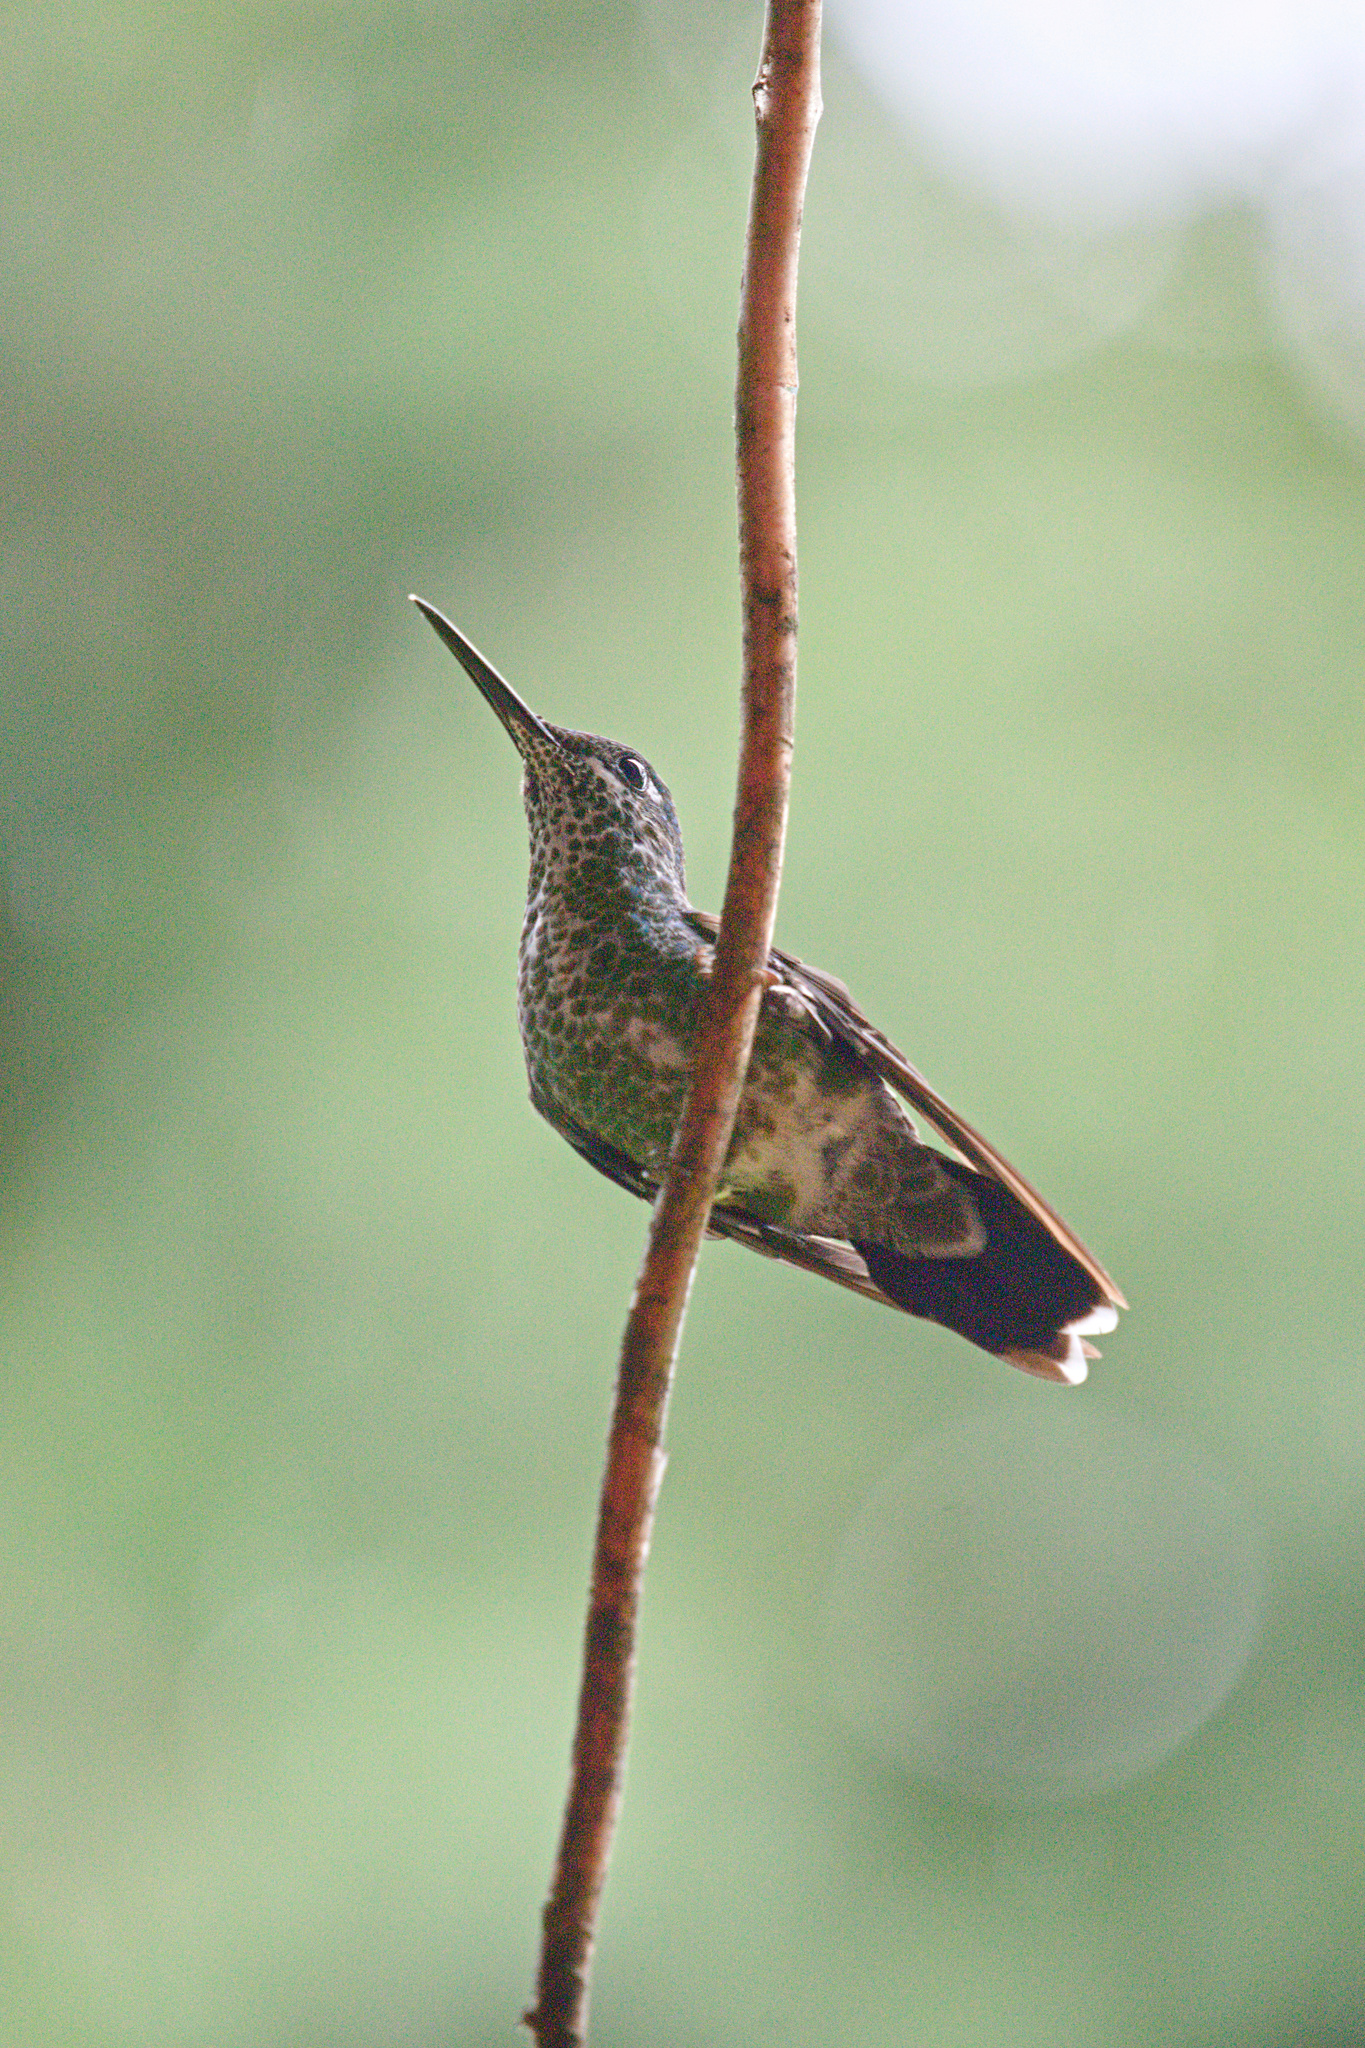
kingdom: Animalia
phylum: Chordata
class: Aves
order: Apodiformes
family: Trochilidae
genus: Florisuga
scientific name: Florisuga mellivora
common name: White-necked jacobin
